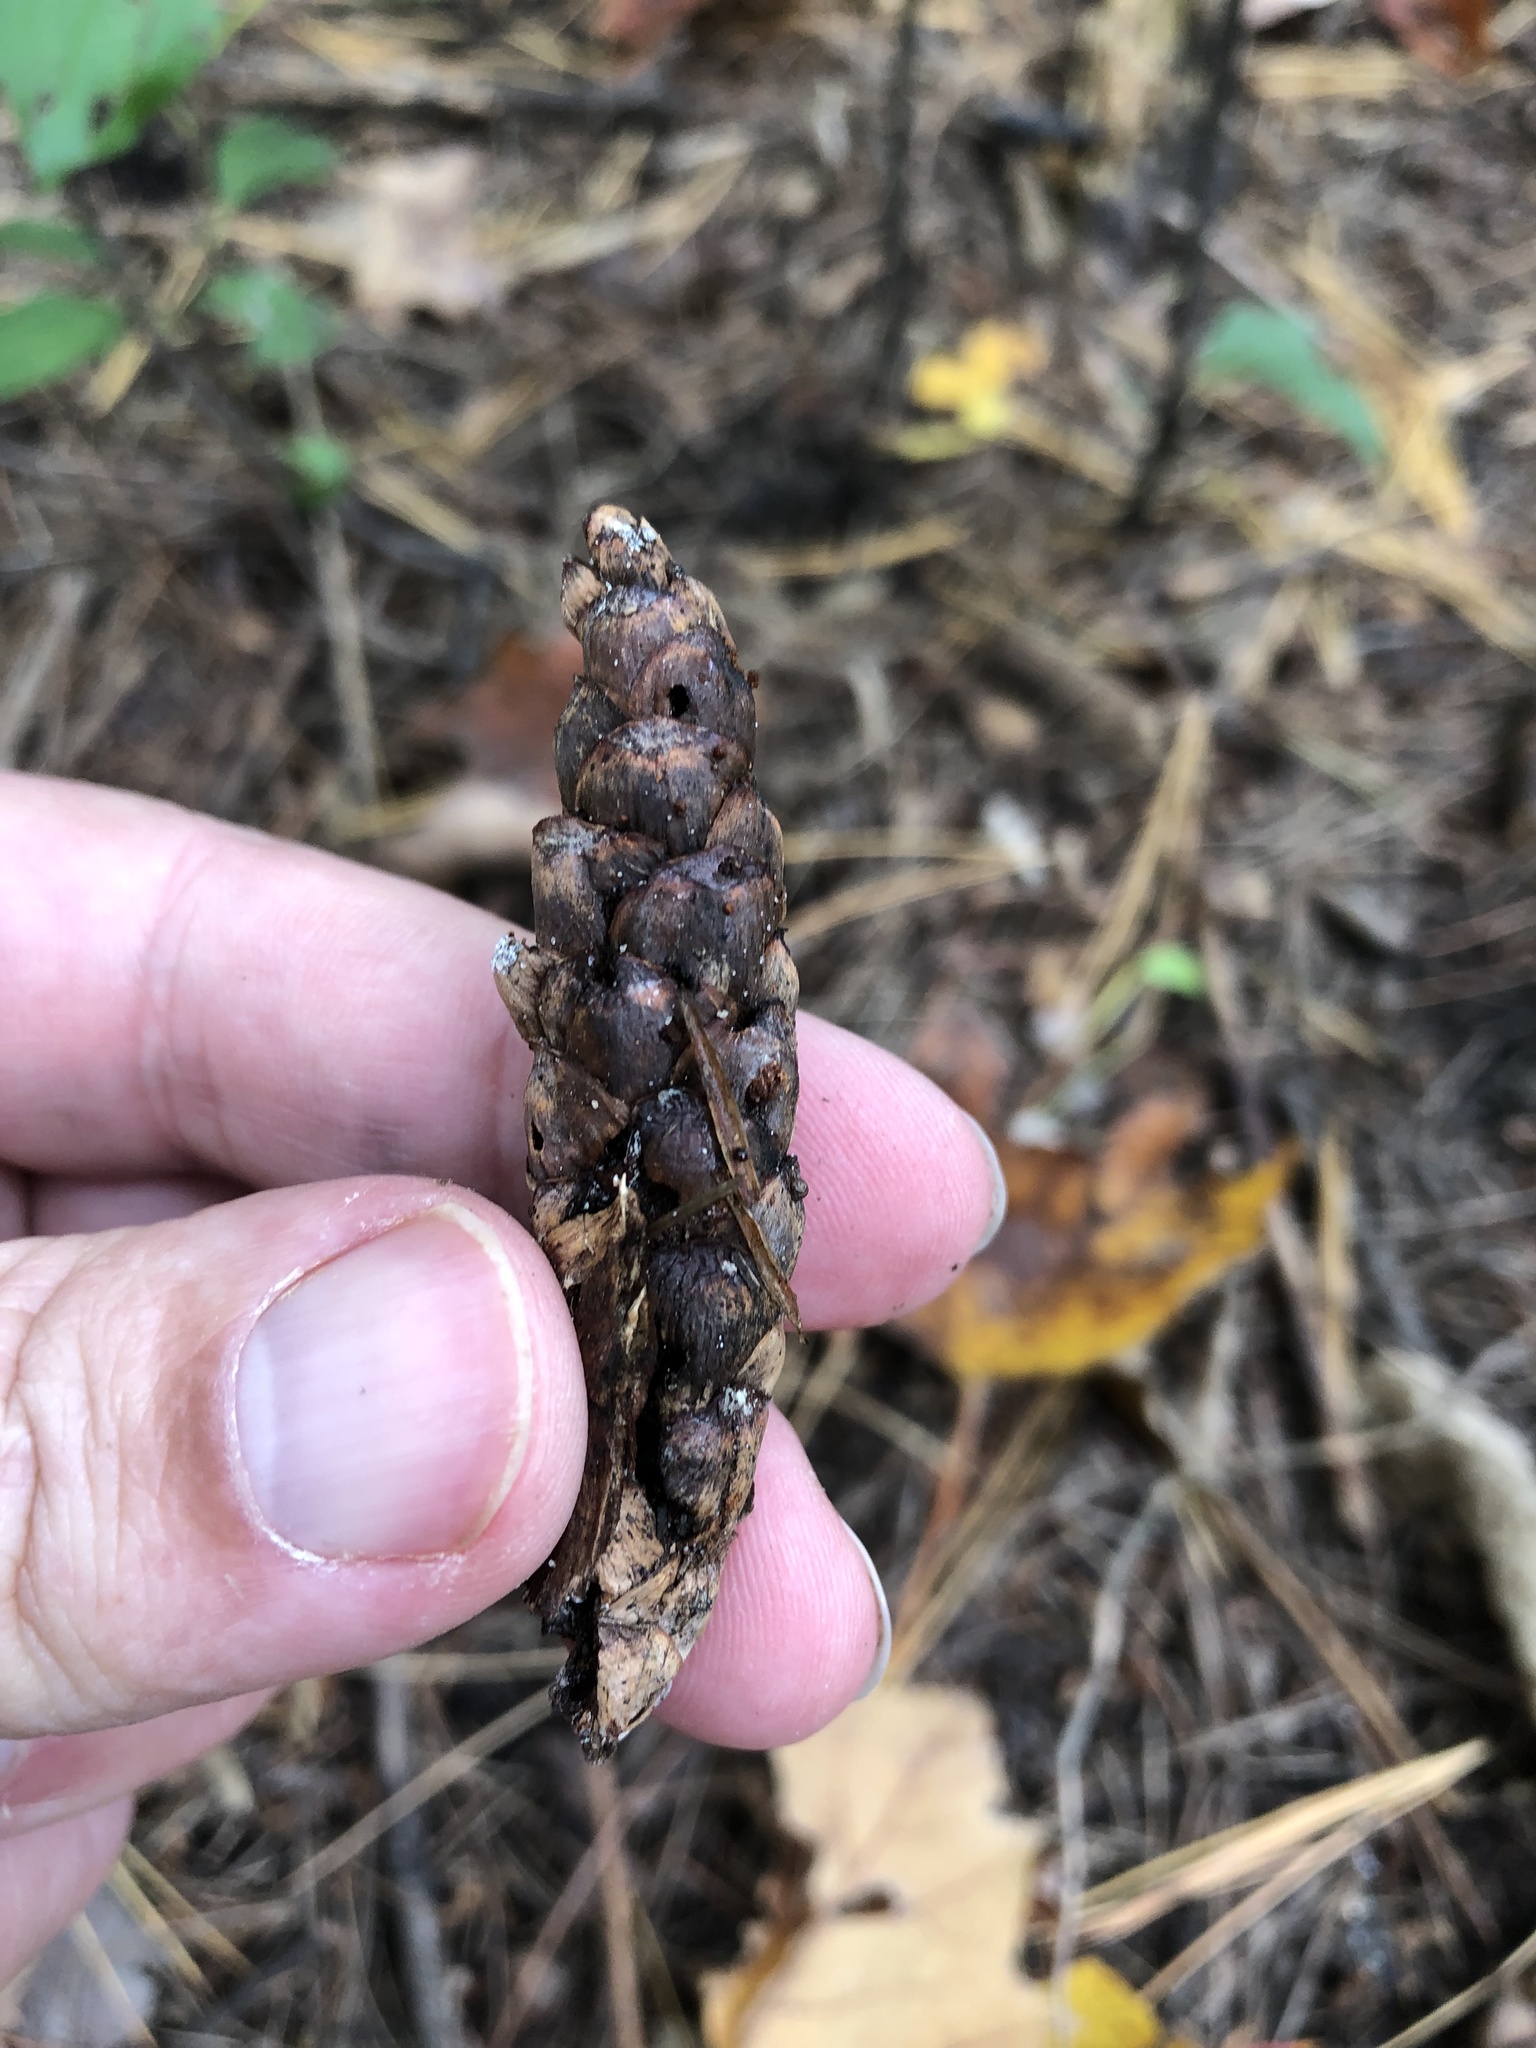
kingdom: Plantae
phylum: Tracheophyta
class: Pinopsida
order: Pinales
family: Pinaceae
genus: Pinus
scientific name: Pinus strobus
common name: Weymouth pine
